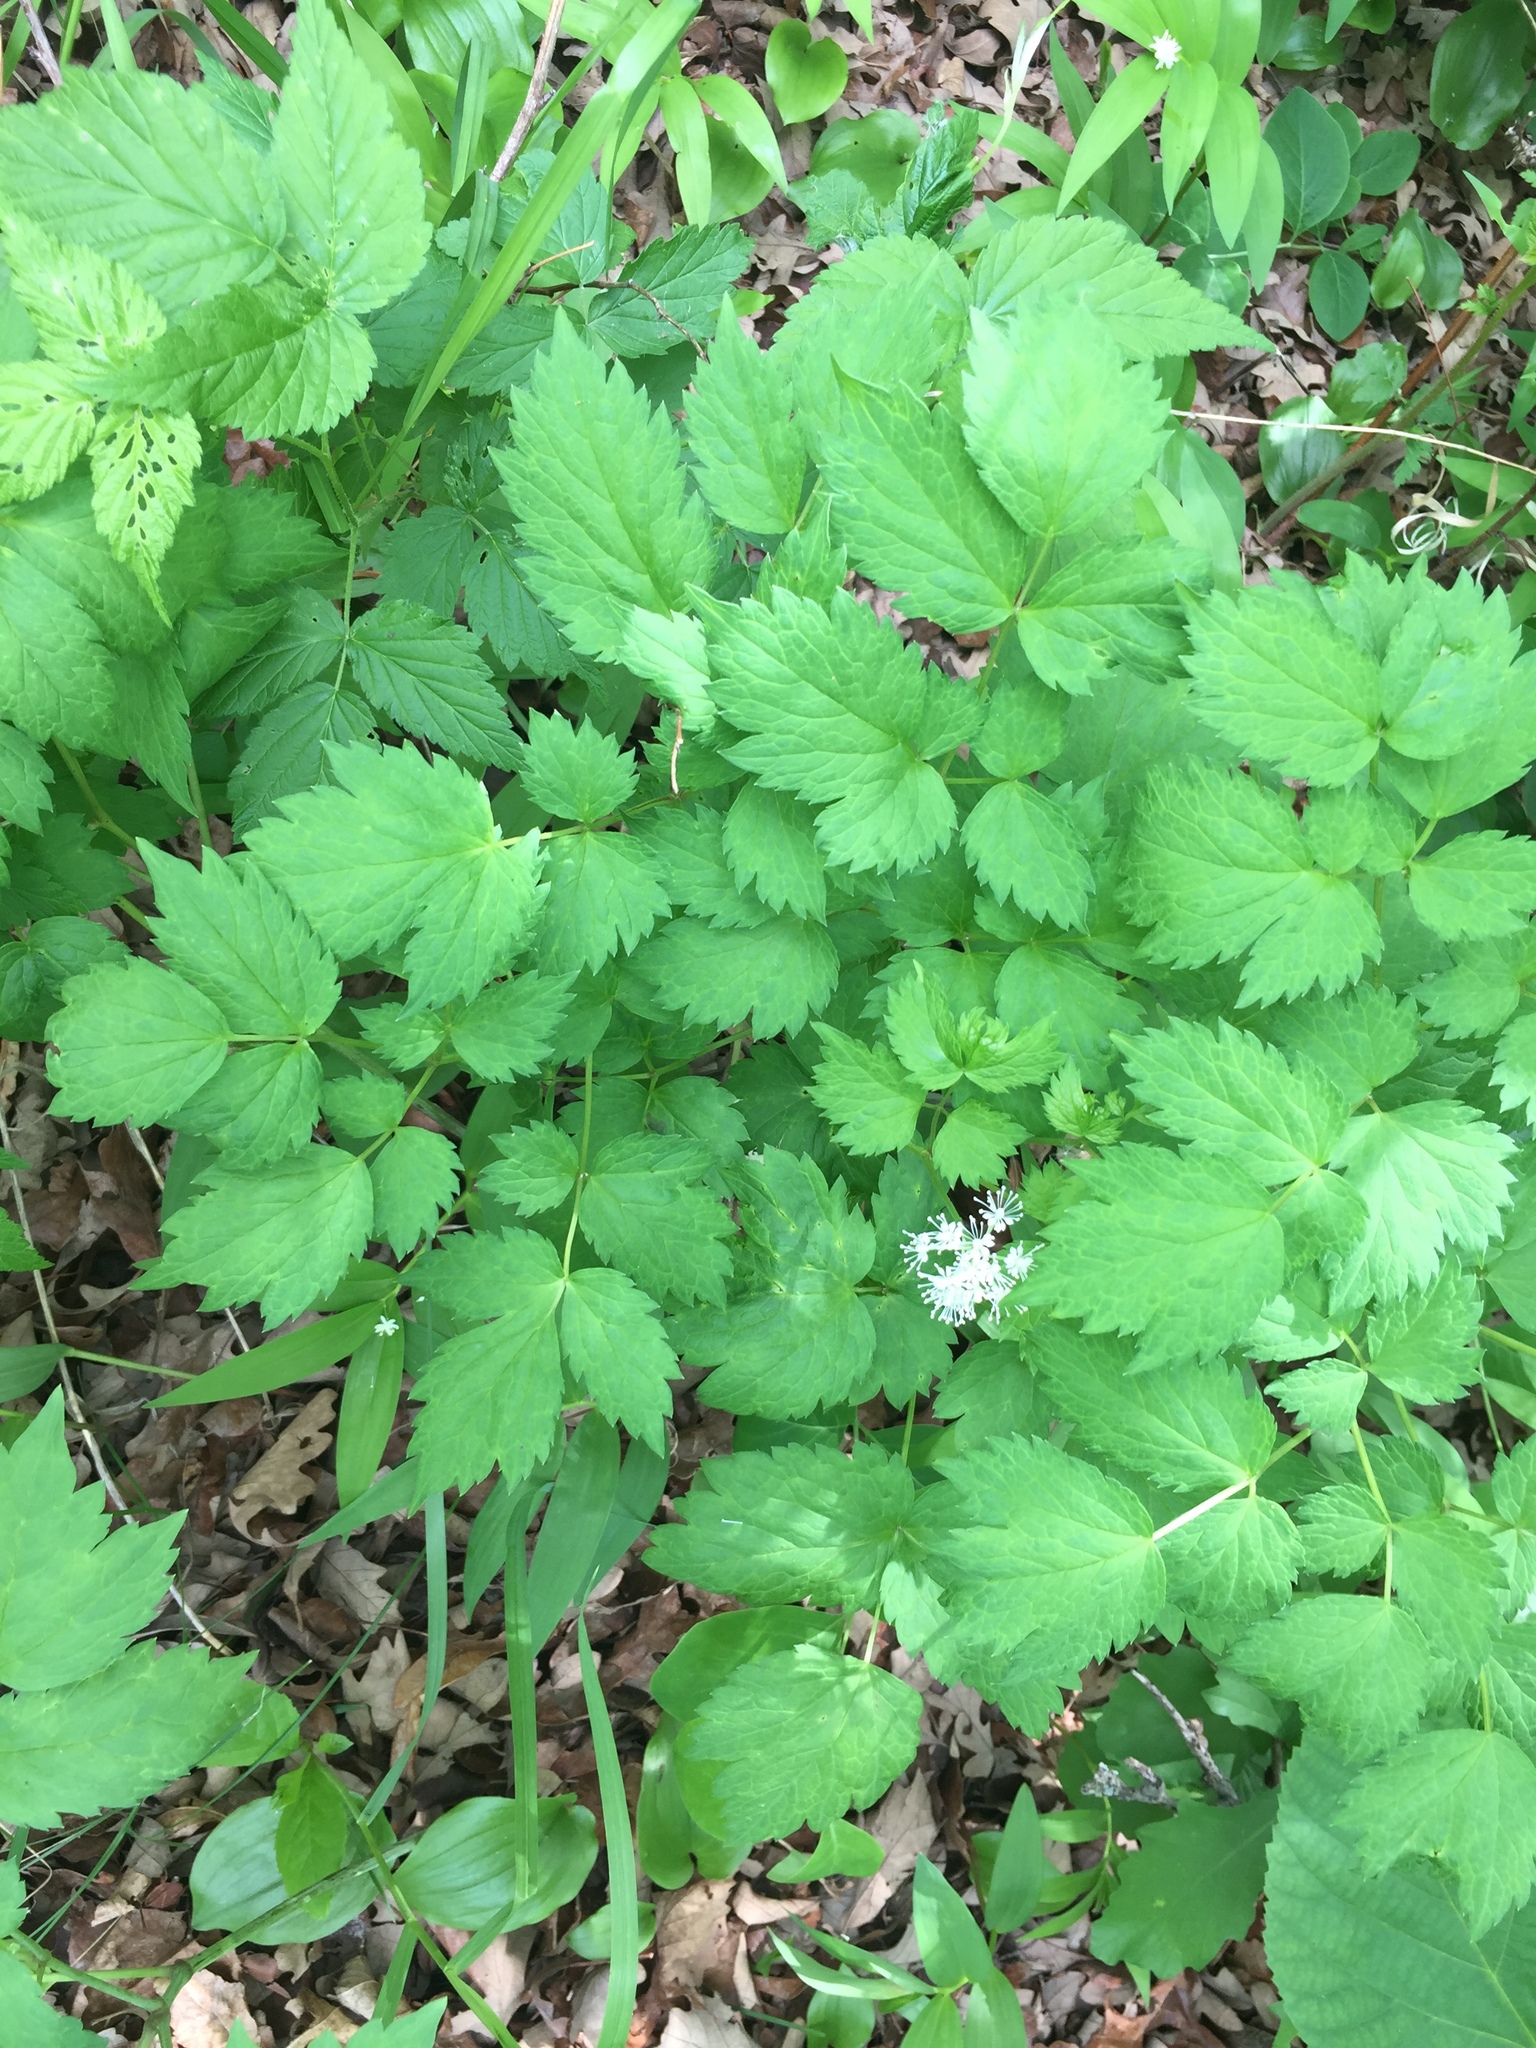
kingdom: Plantae
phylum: Tracheophyta
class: Magnoliopsida
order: Ranunculales
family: Ranunculaceae
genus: Actaea
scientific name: Actaea rubra
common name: Red baneberry
